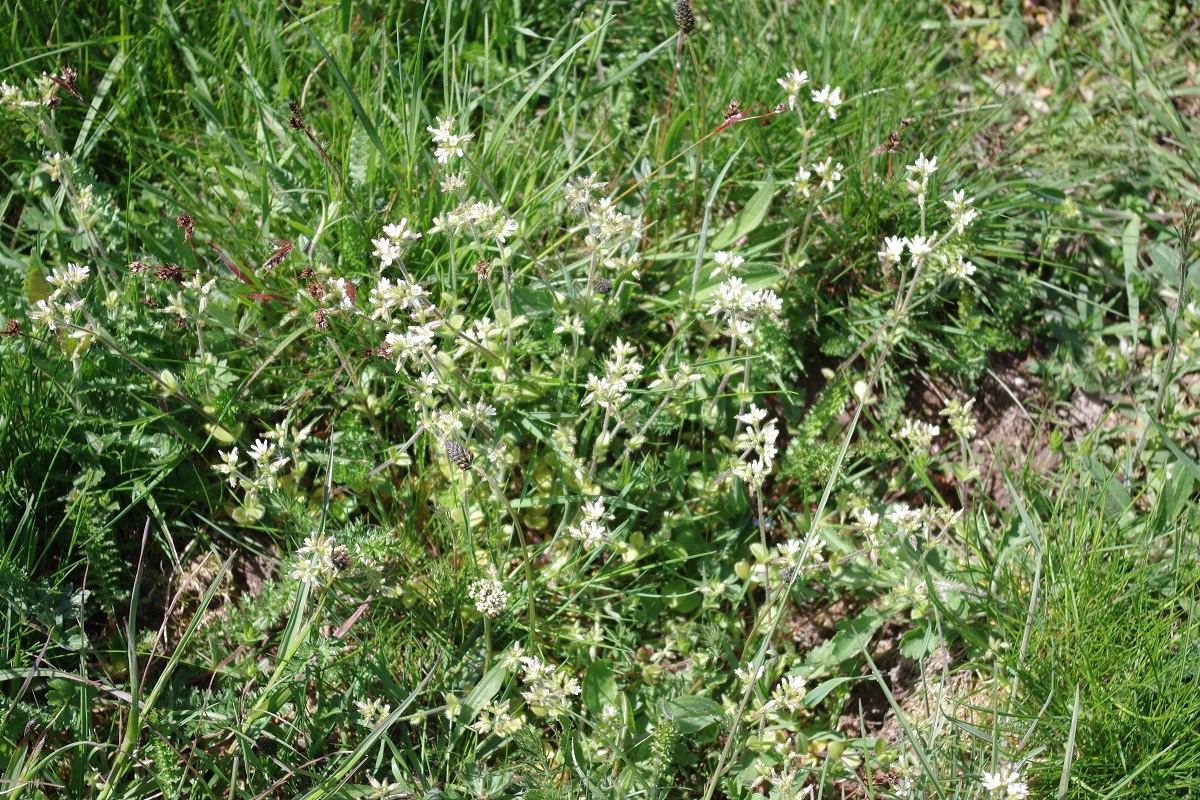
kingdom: Plantae
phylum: Tracheophyta
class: Magnoliopsida
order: Caryophyllales
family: Caryophyllaceae
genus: Cerastium
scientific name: Cerastium glomeratum
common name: Sticky chickweed
